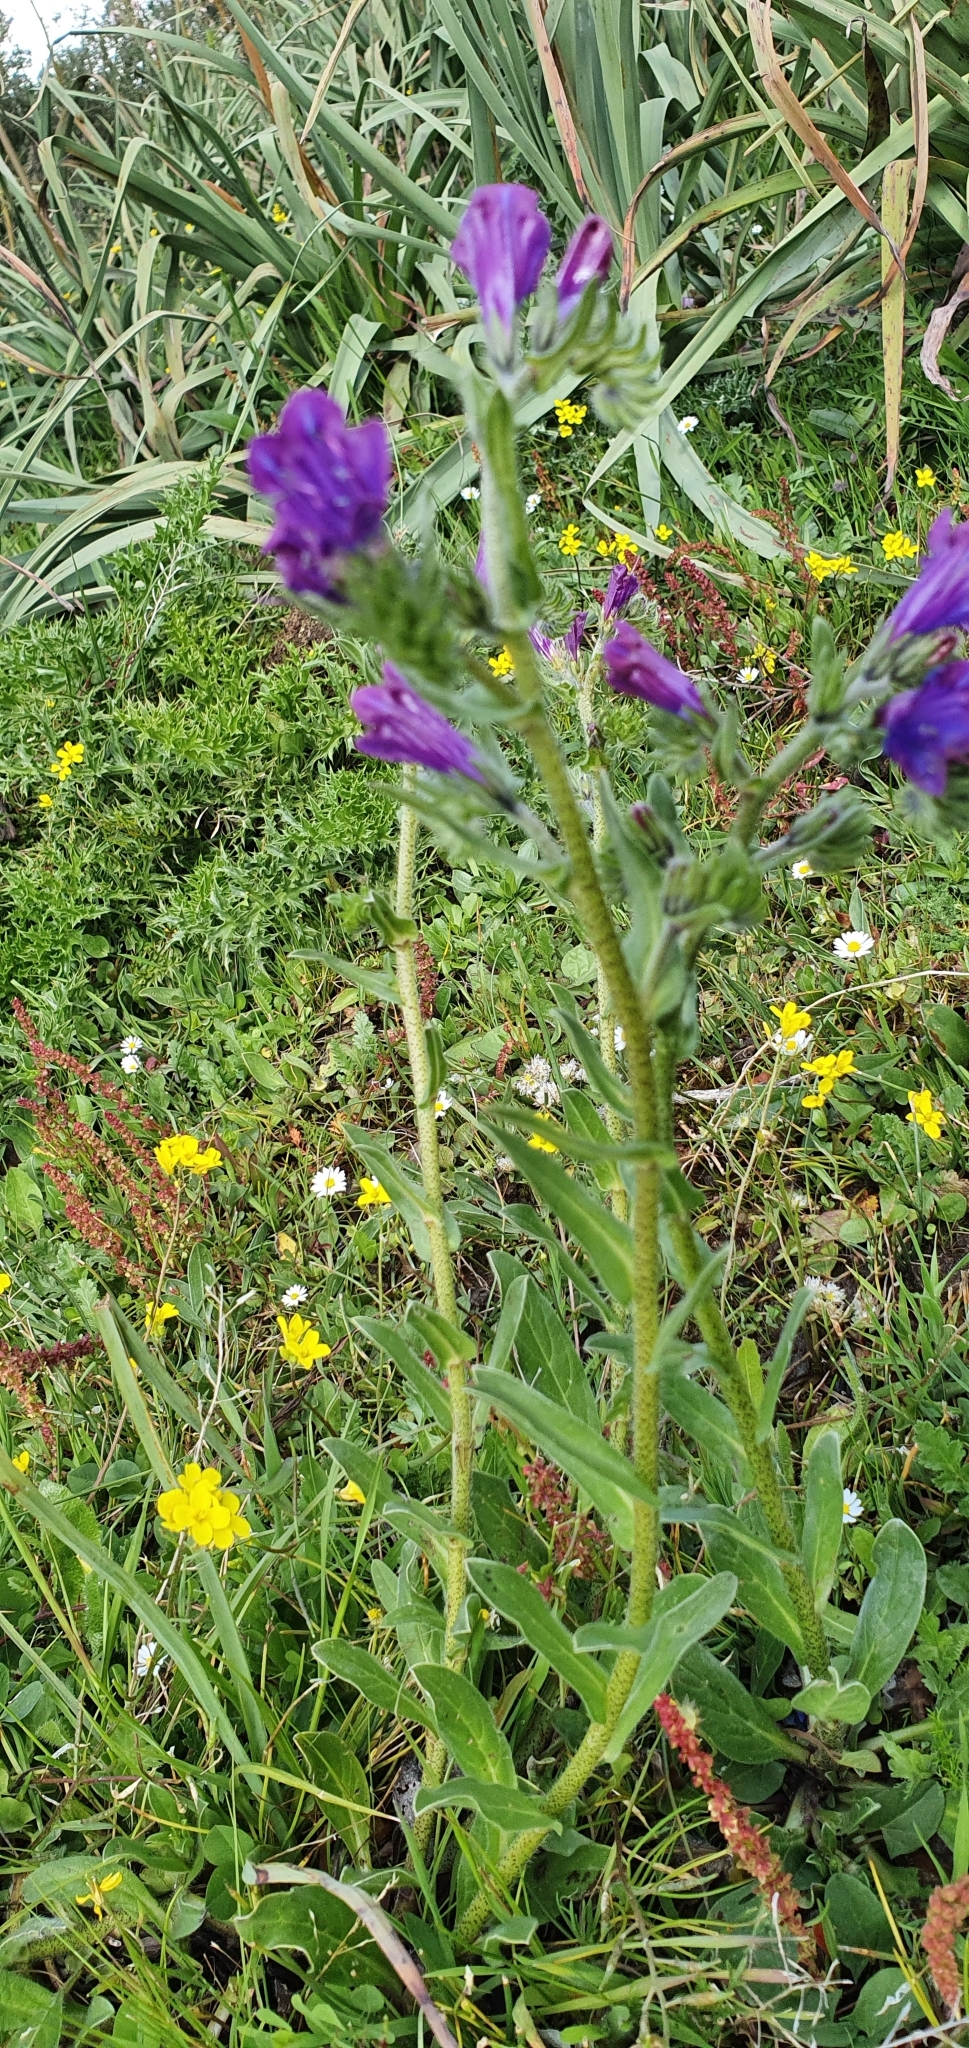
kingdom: Plantae
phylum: Tracheophyta
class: Magnoliopsida
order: Boraginales
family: Boraginaceae
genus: Echium
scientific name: Echium plantagineum
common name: Purple viper's-bugloss
